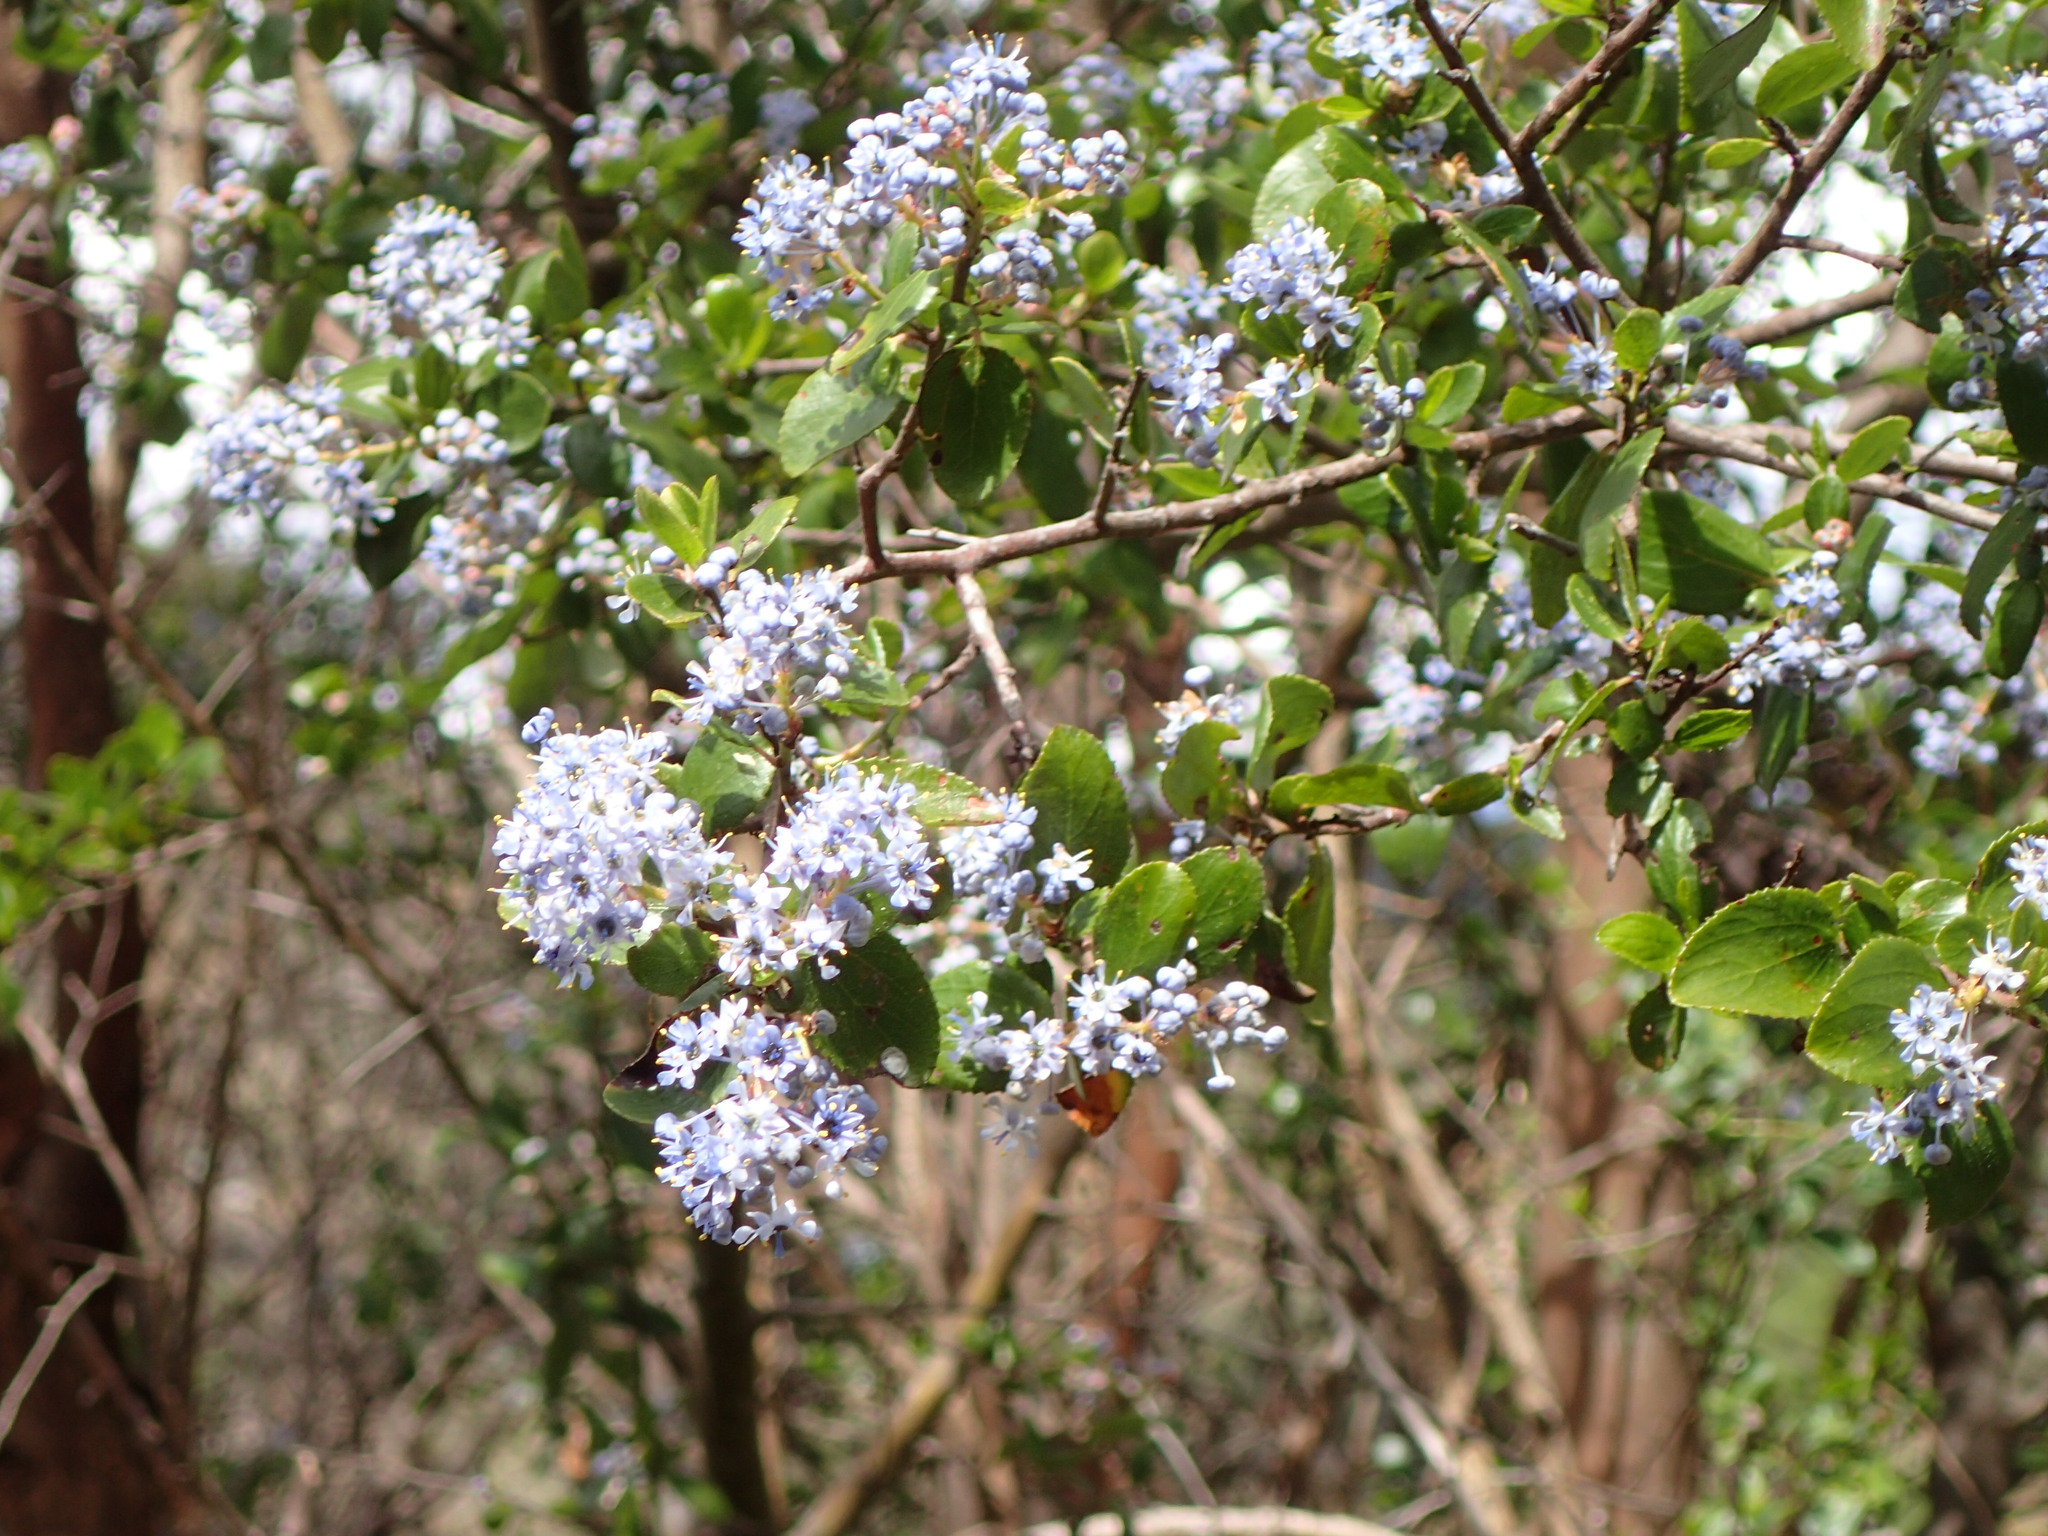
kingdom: Plantae
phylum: Tracheophyta
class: Magnoliopsida
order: Rosales
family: Rhamnaceae
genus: Ceanothus
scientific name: Ceanothus oliganthus
